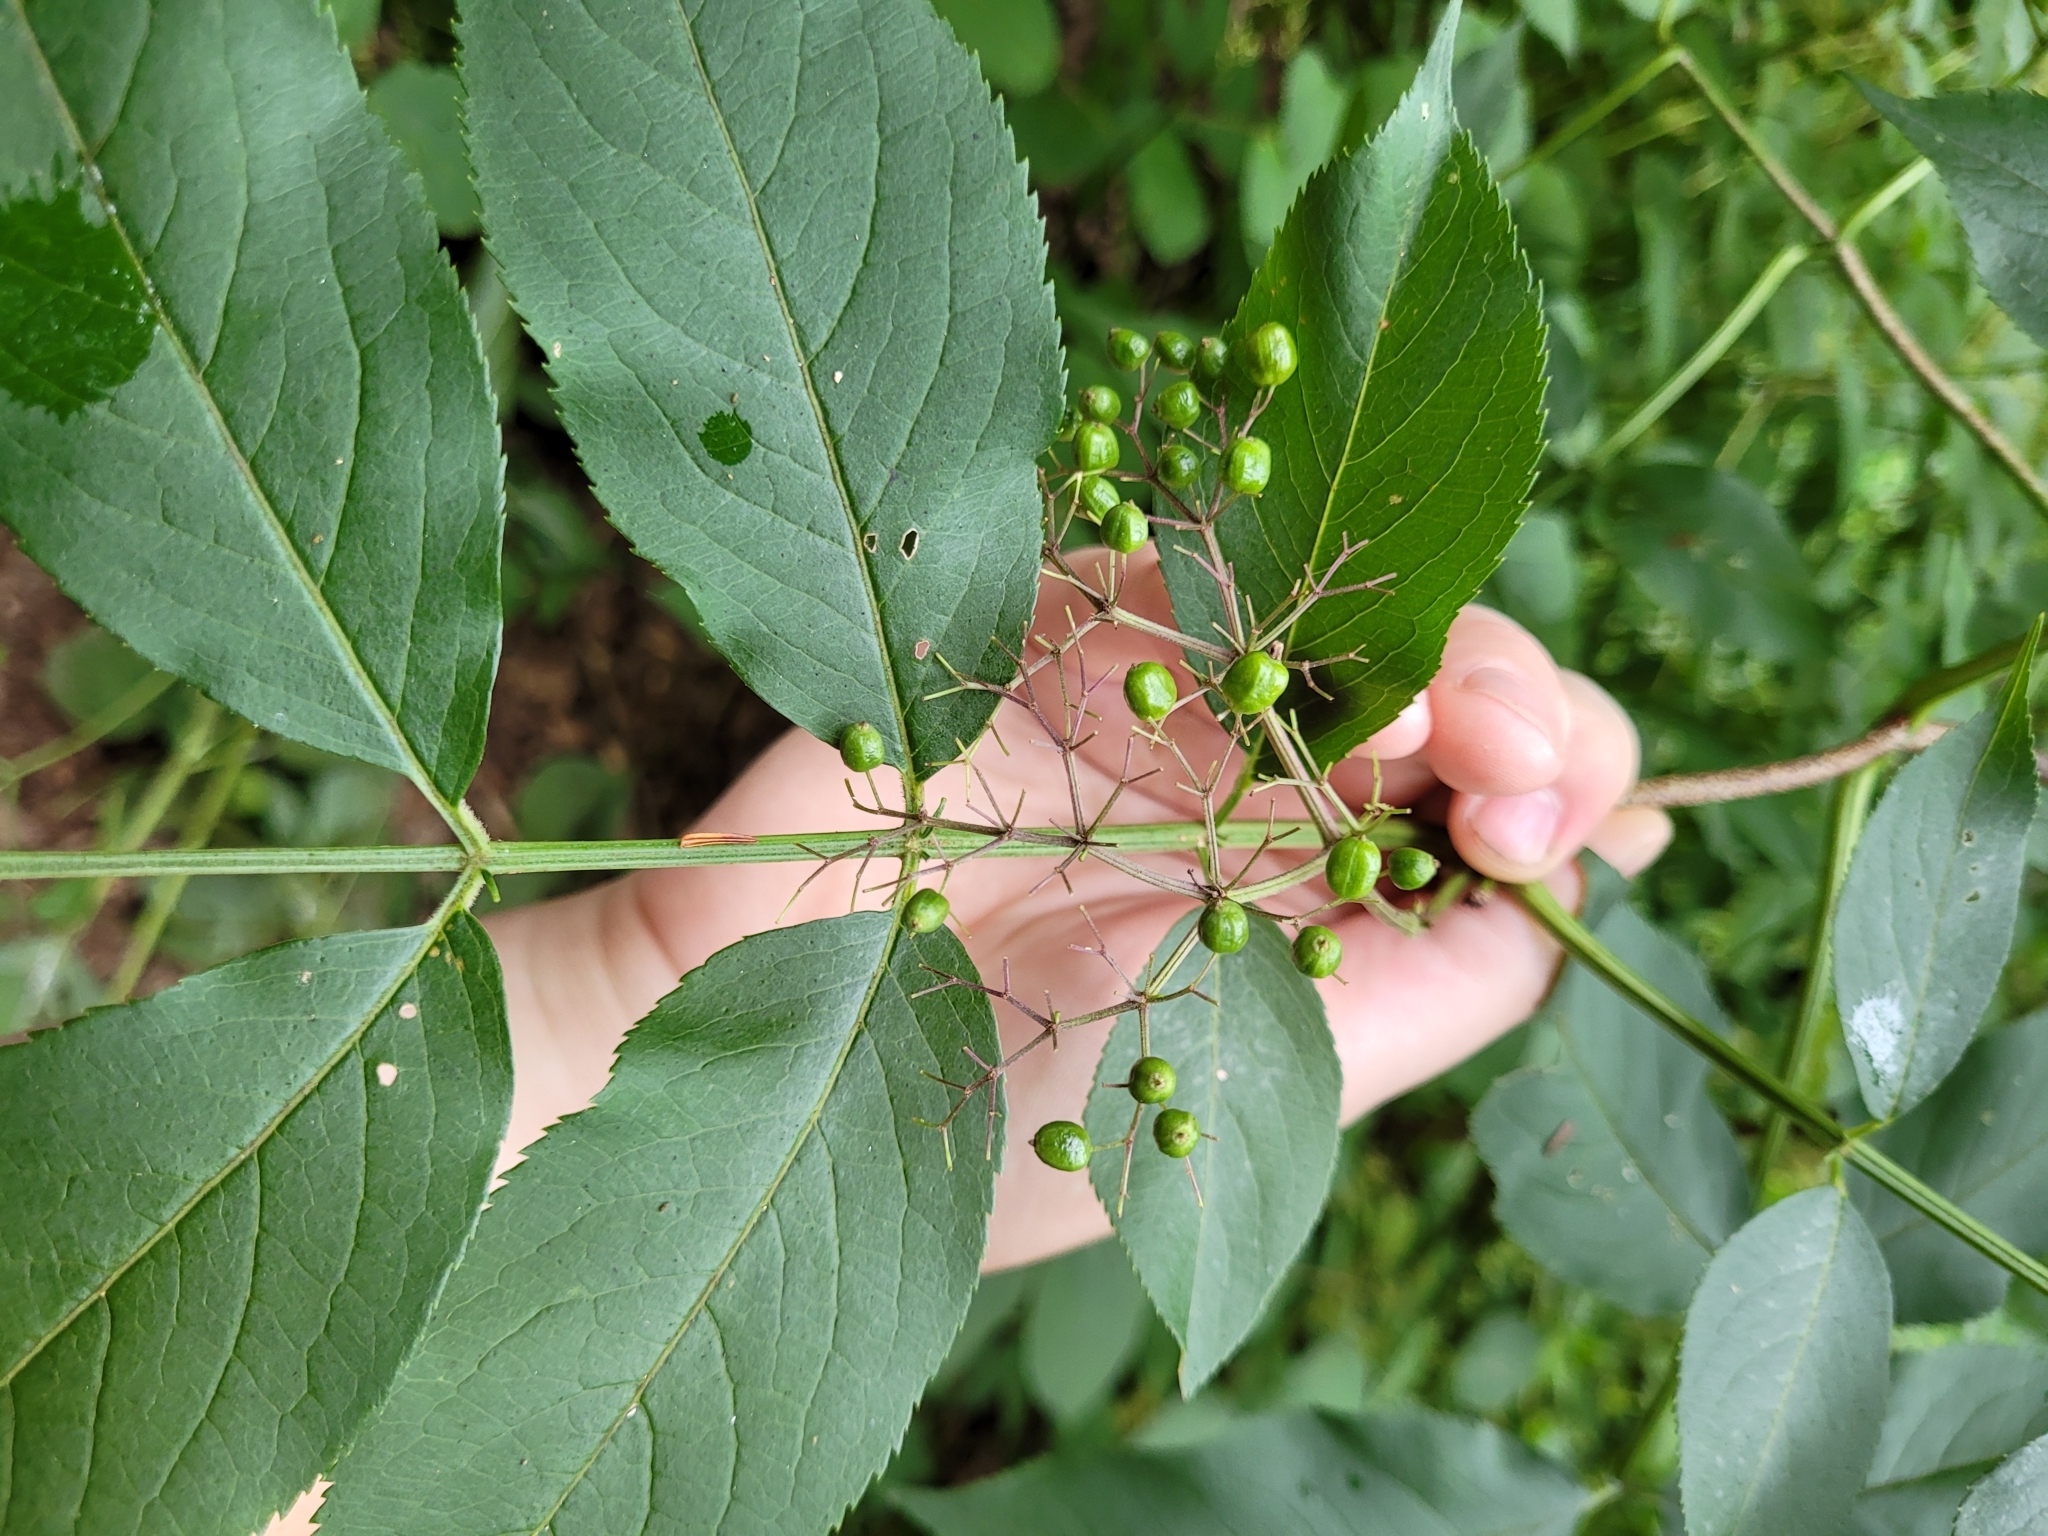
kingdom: Plantae
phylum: Tracheophyta
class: Magnoliopsida
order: Dipsacales
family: Viburnaceae
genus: Sambucus
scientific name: Sambucus canadensis
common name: American elder
